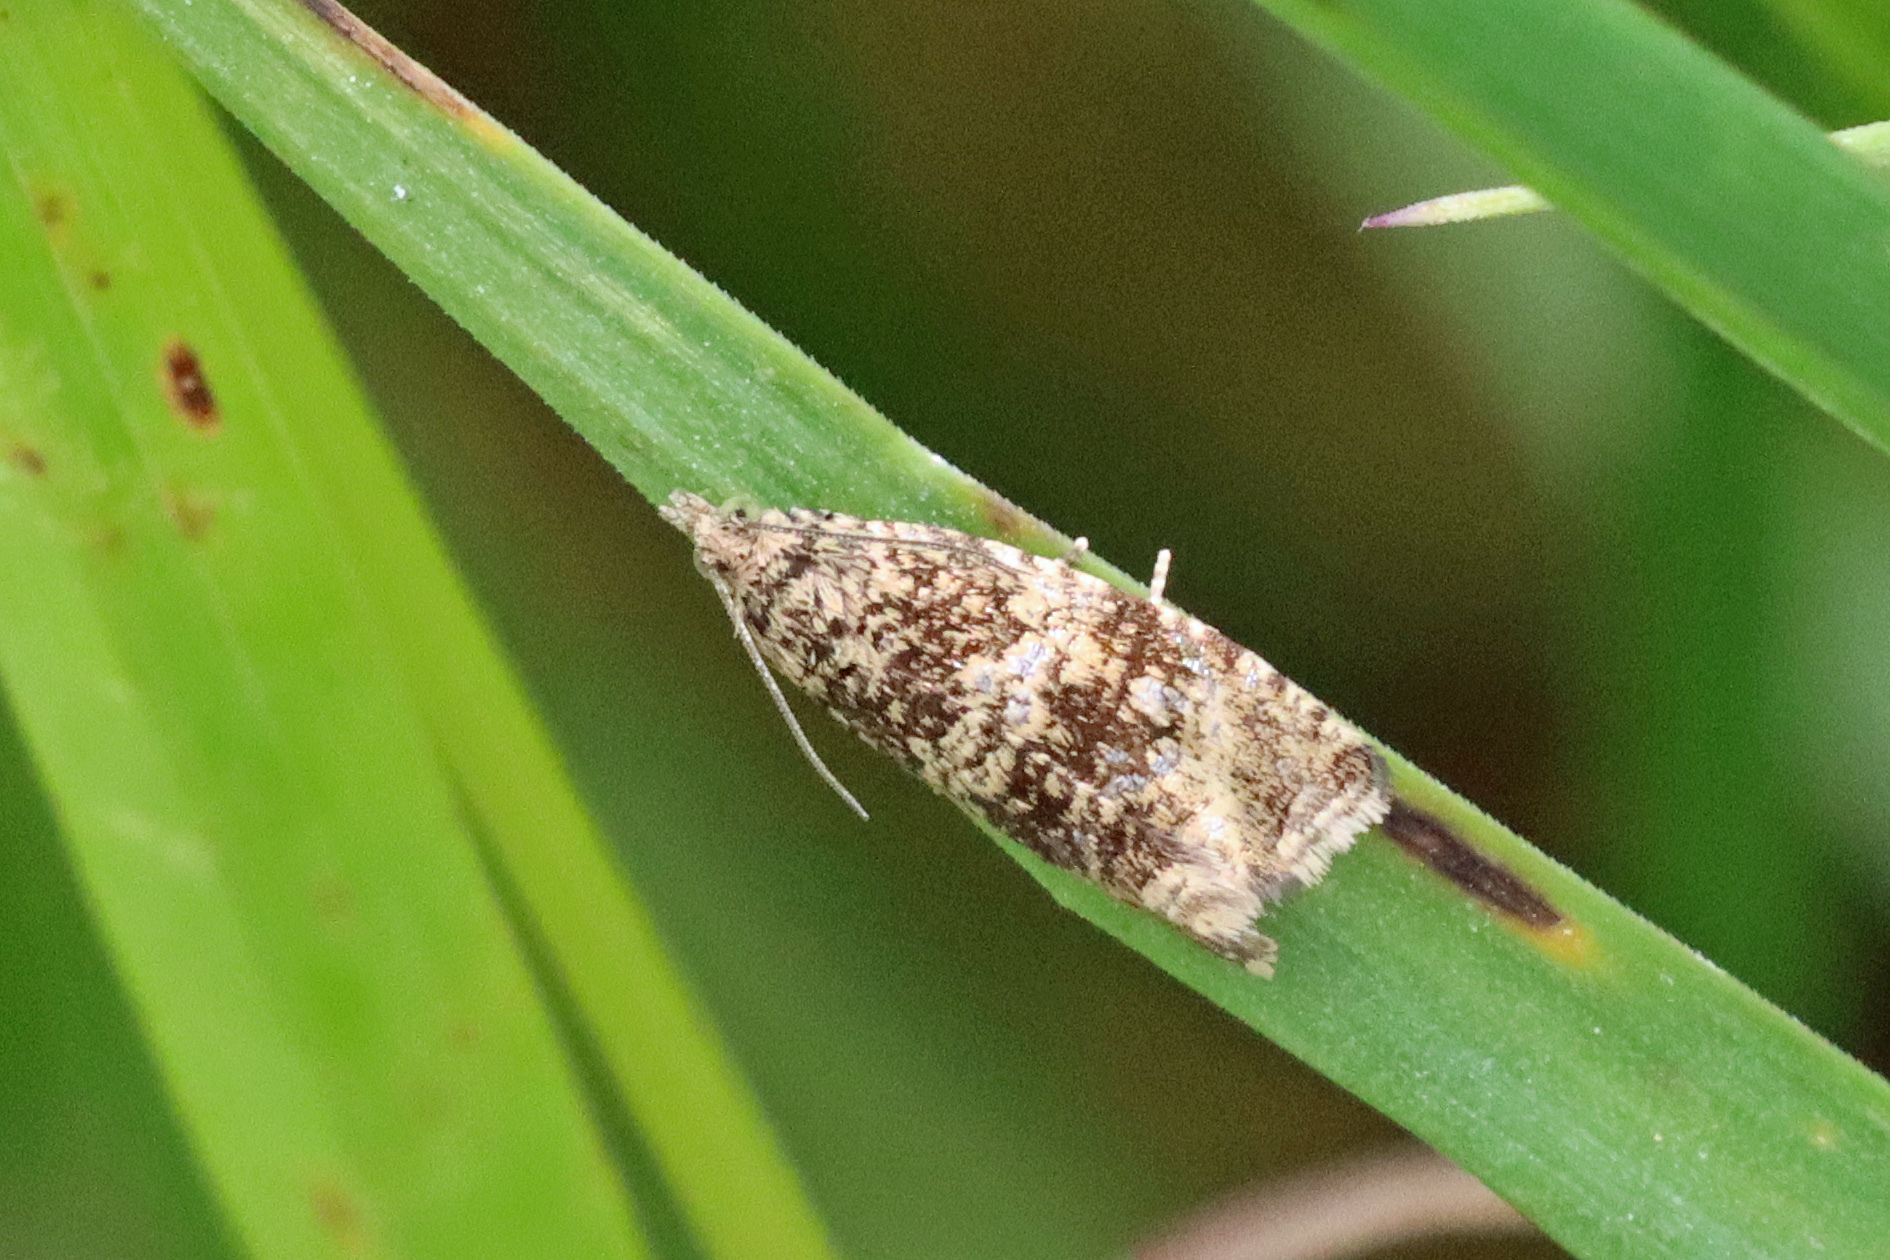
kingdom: Animalia
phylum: Arthropoda
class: Insecta
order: Lepidoptera
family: Tortricidae
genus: Syricoris
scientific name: Syricoris lacunana
